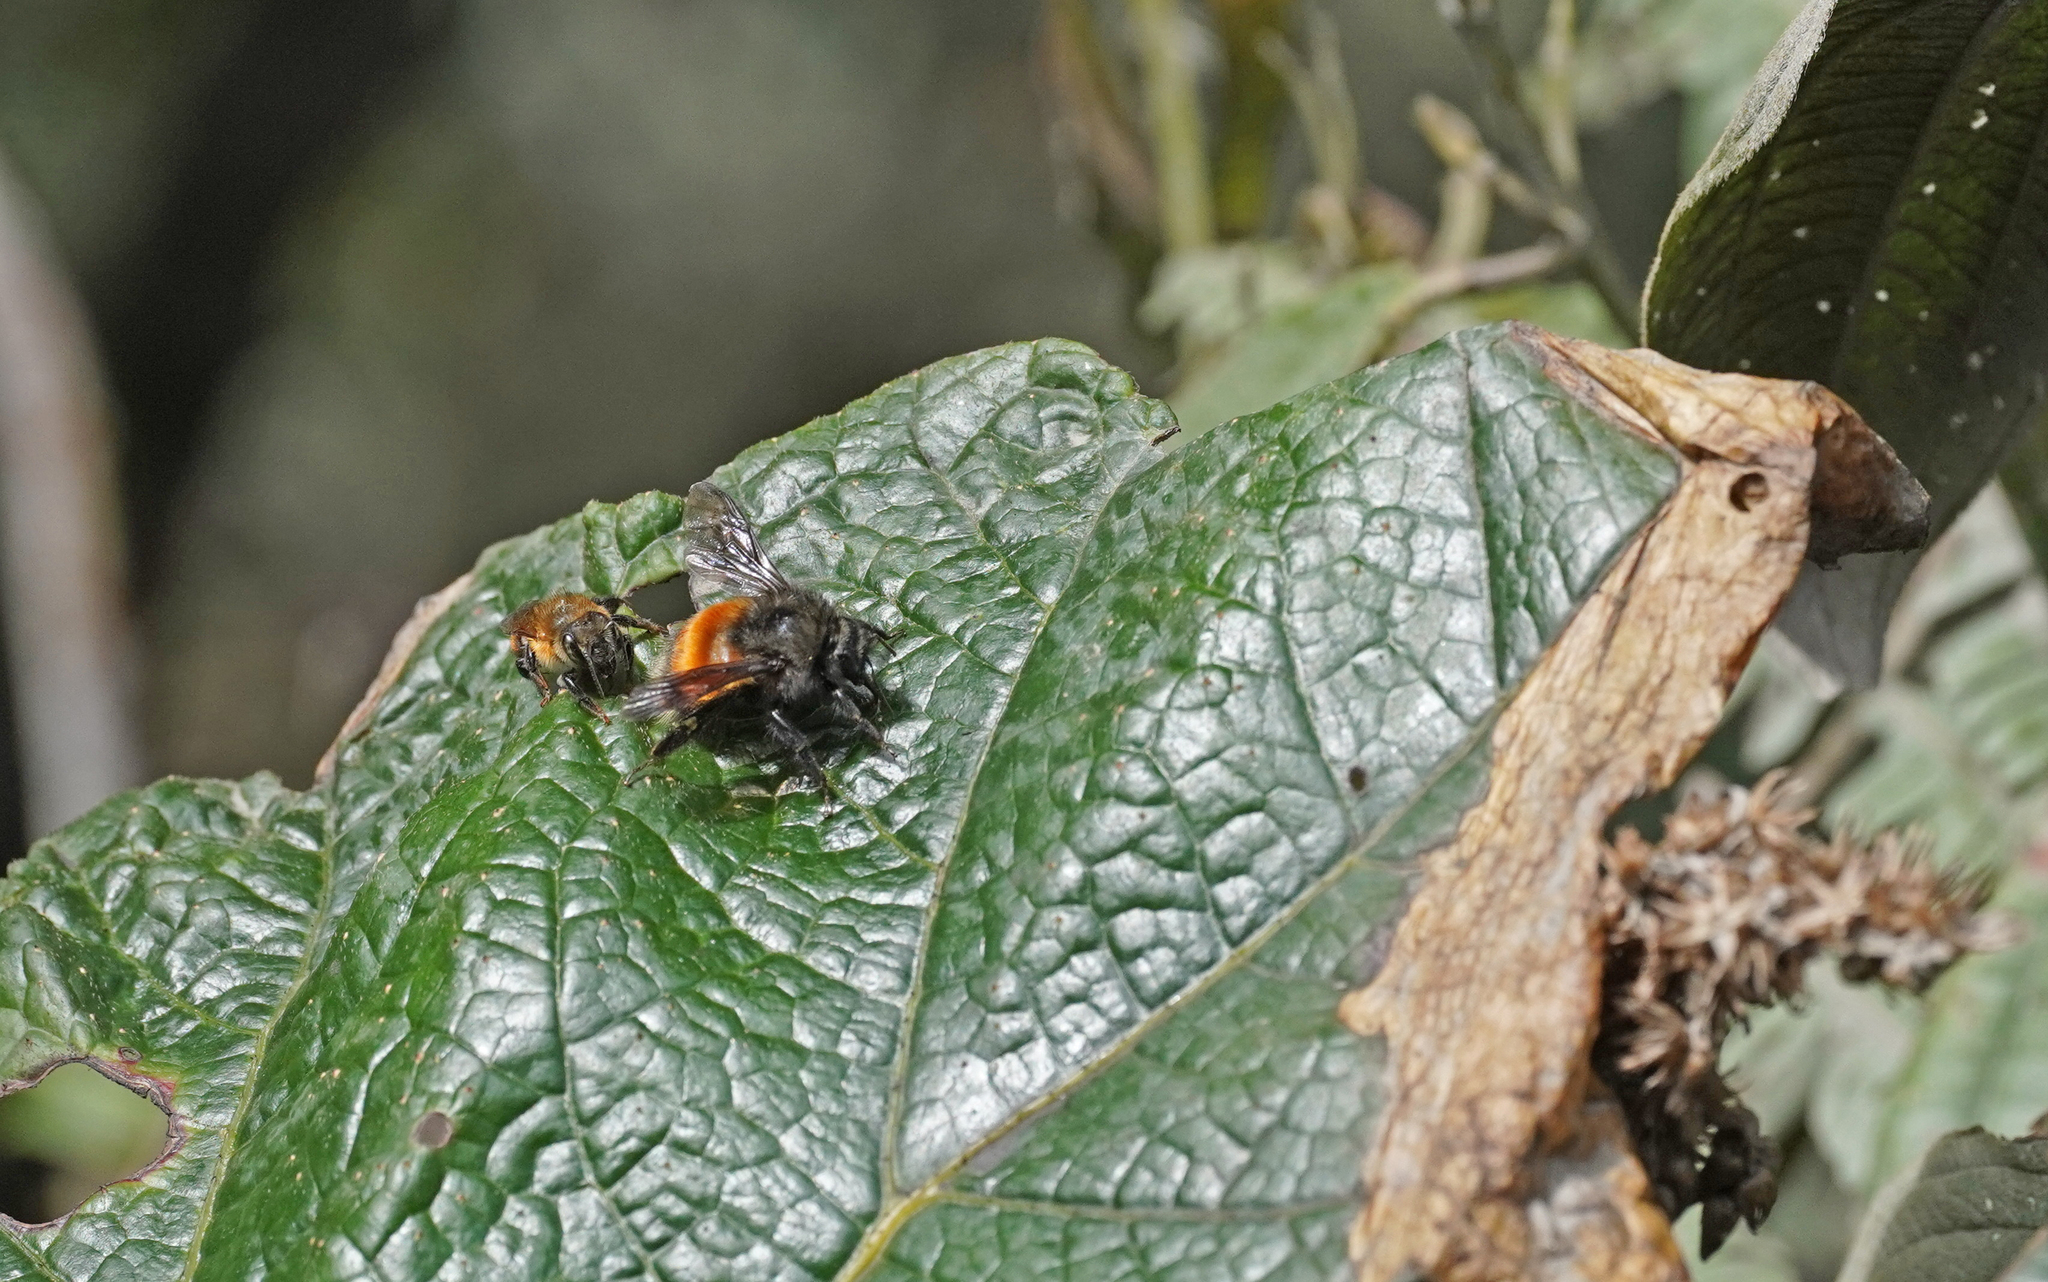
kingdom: Animalia
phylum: Arthropoda
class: Insecta
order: Hymenoptera
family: Apidae
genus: Bombus
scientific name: Bombus butteli
